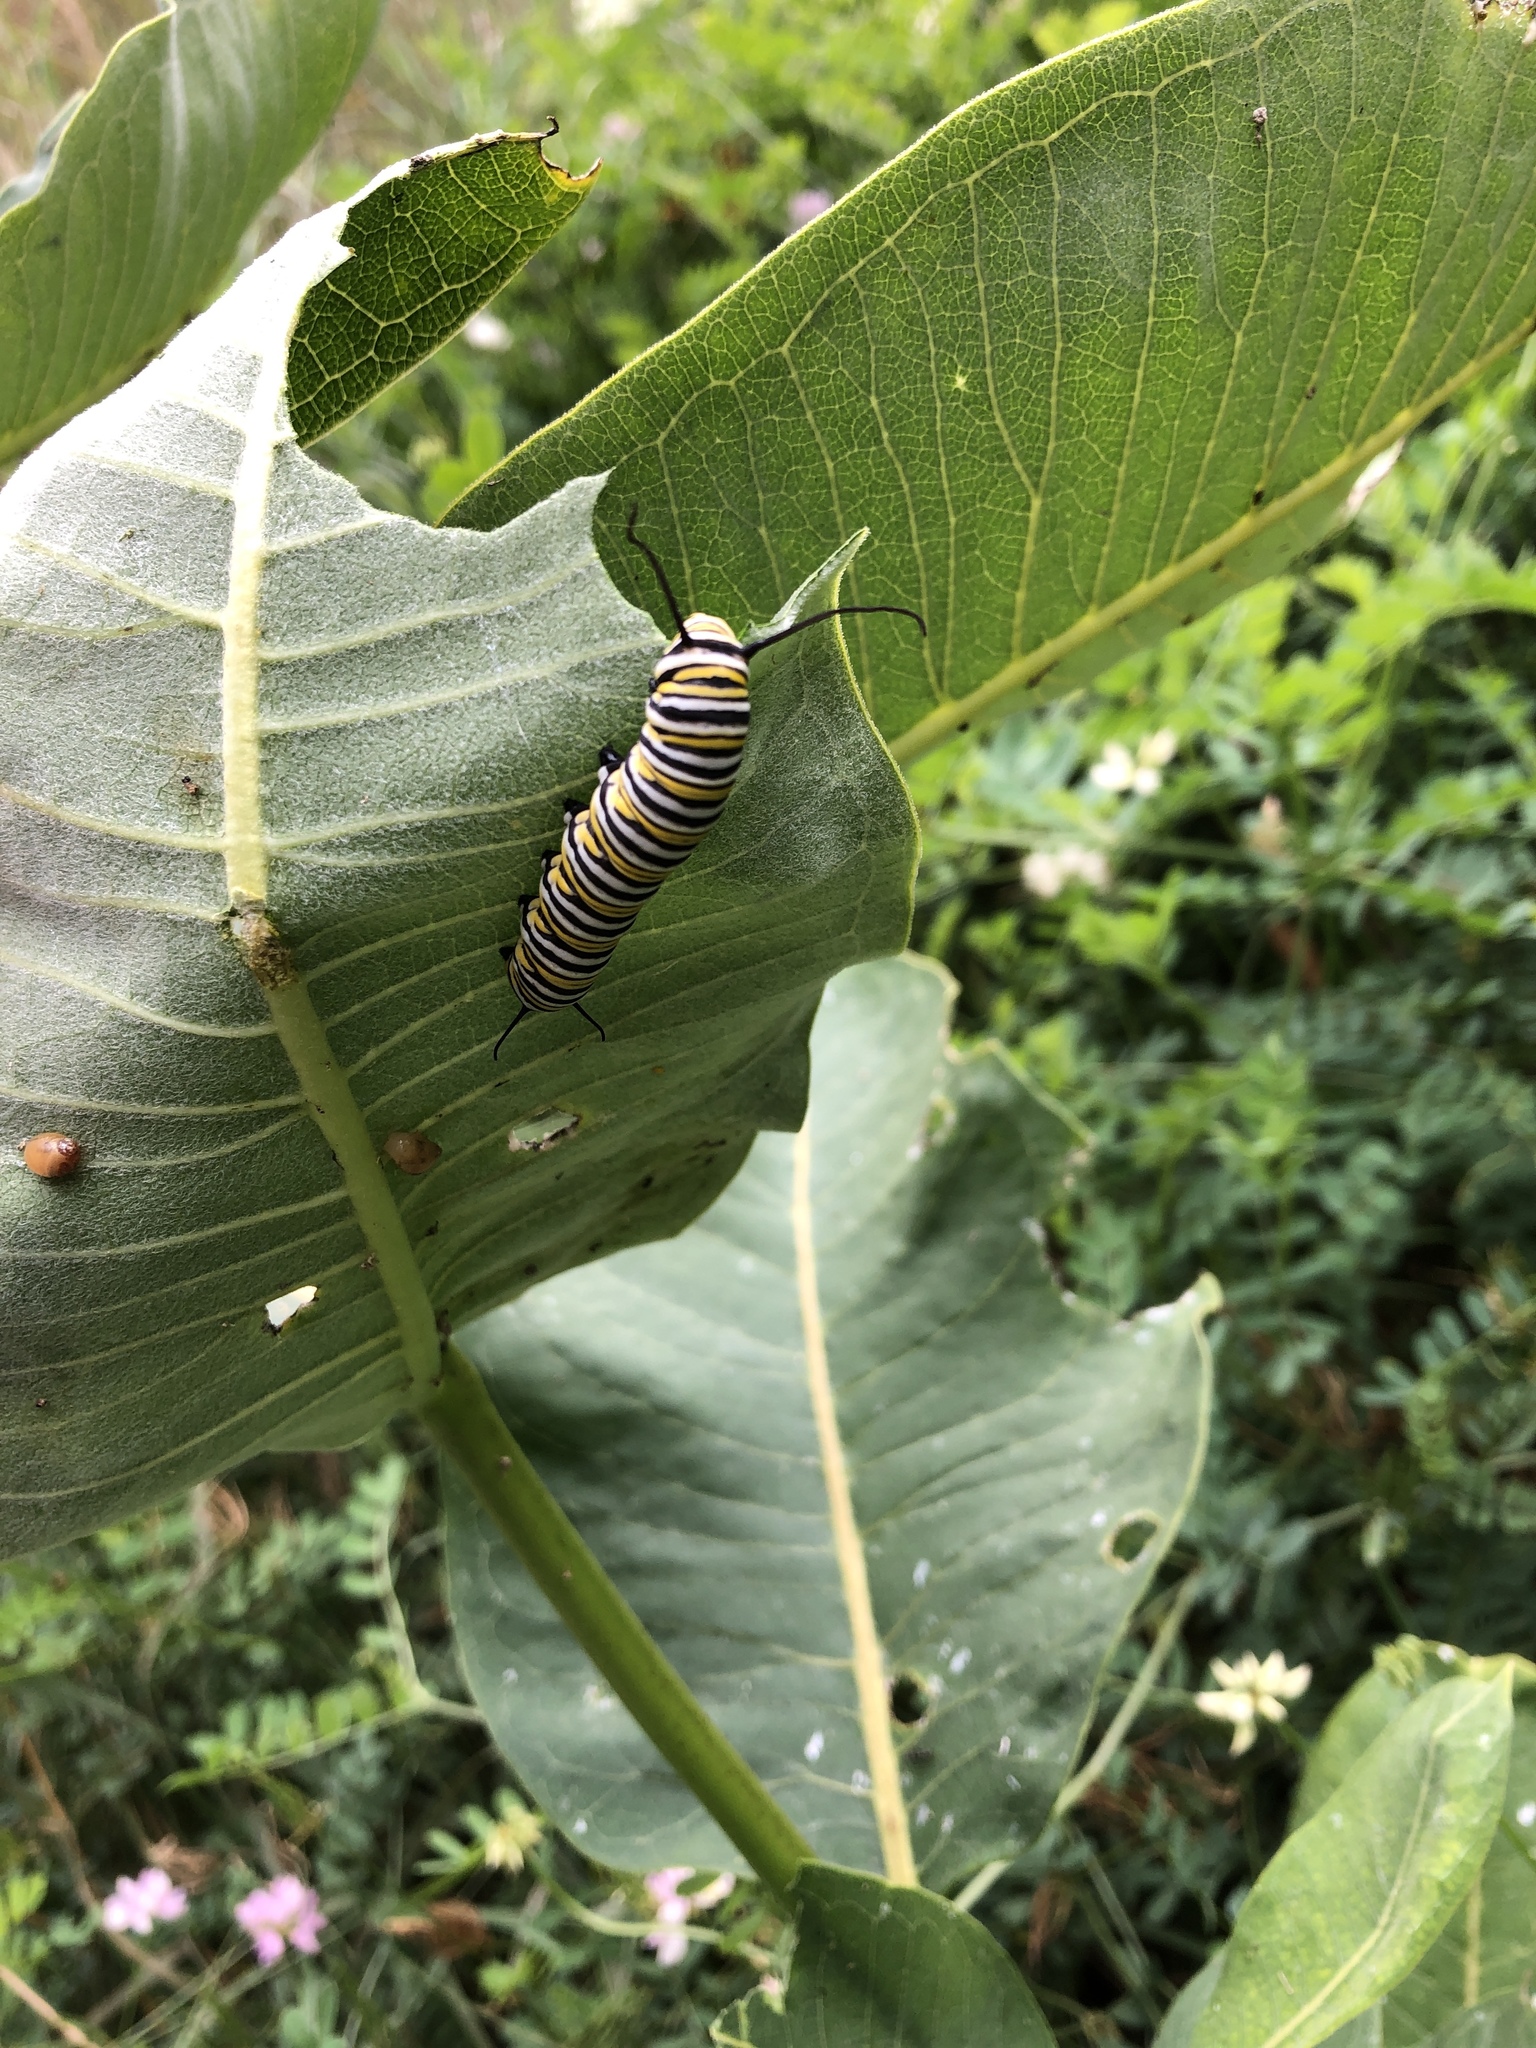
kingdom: Animalia
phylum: Arthropoda
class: Insecta
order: Lepidoptera
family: Nymphalidae
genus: Danaus
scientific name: Danaus plexippus
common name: Monarch
